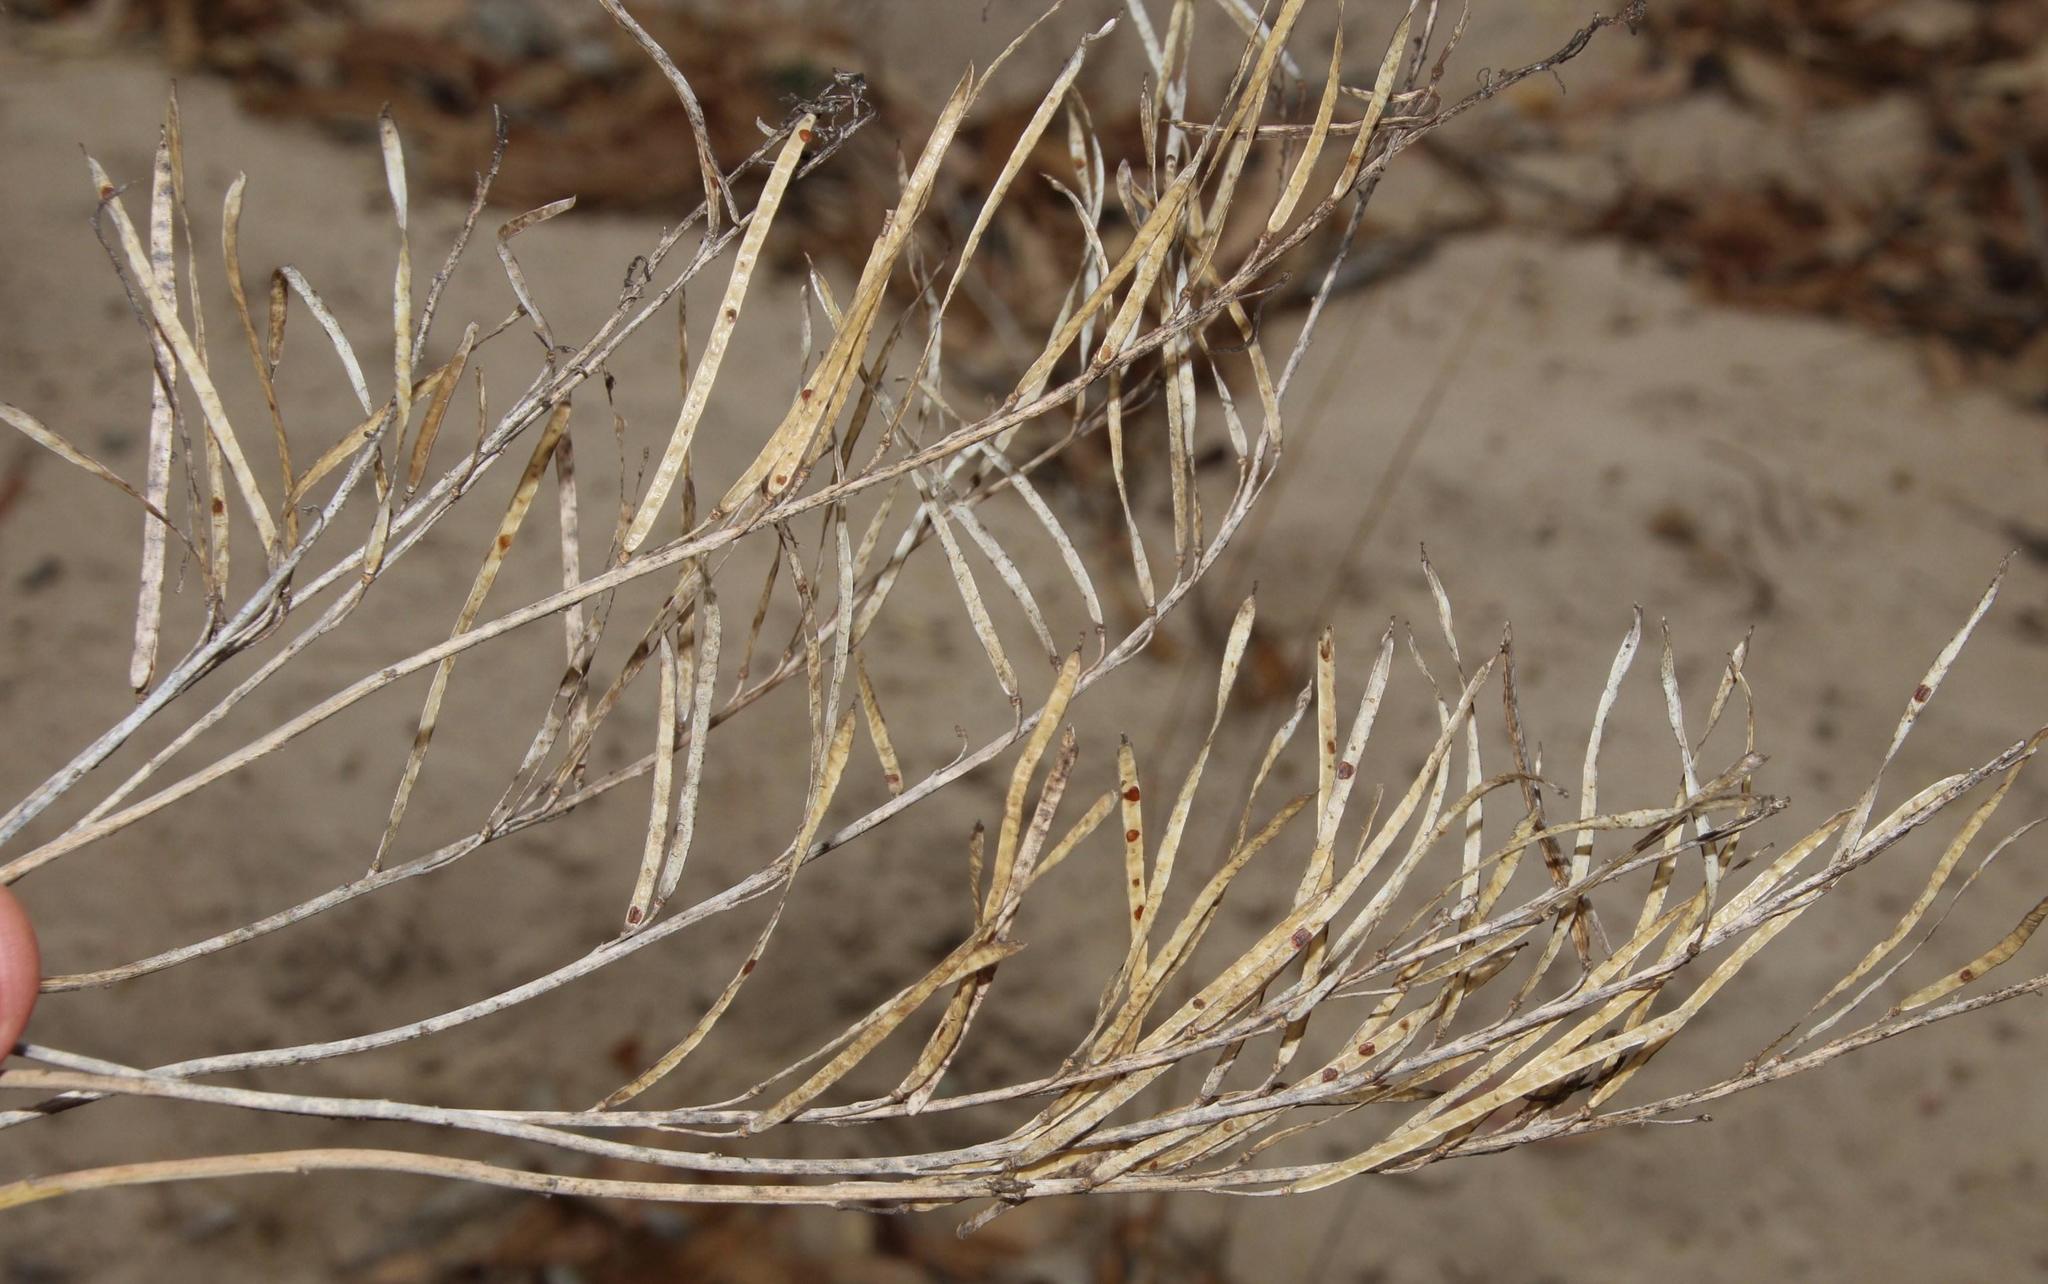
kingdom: Plantae
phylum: Tracheophyta
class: Magnoliopsida
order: Brassicales
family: Brassicaceae
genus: Heliophila
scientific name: Heliophila
